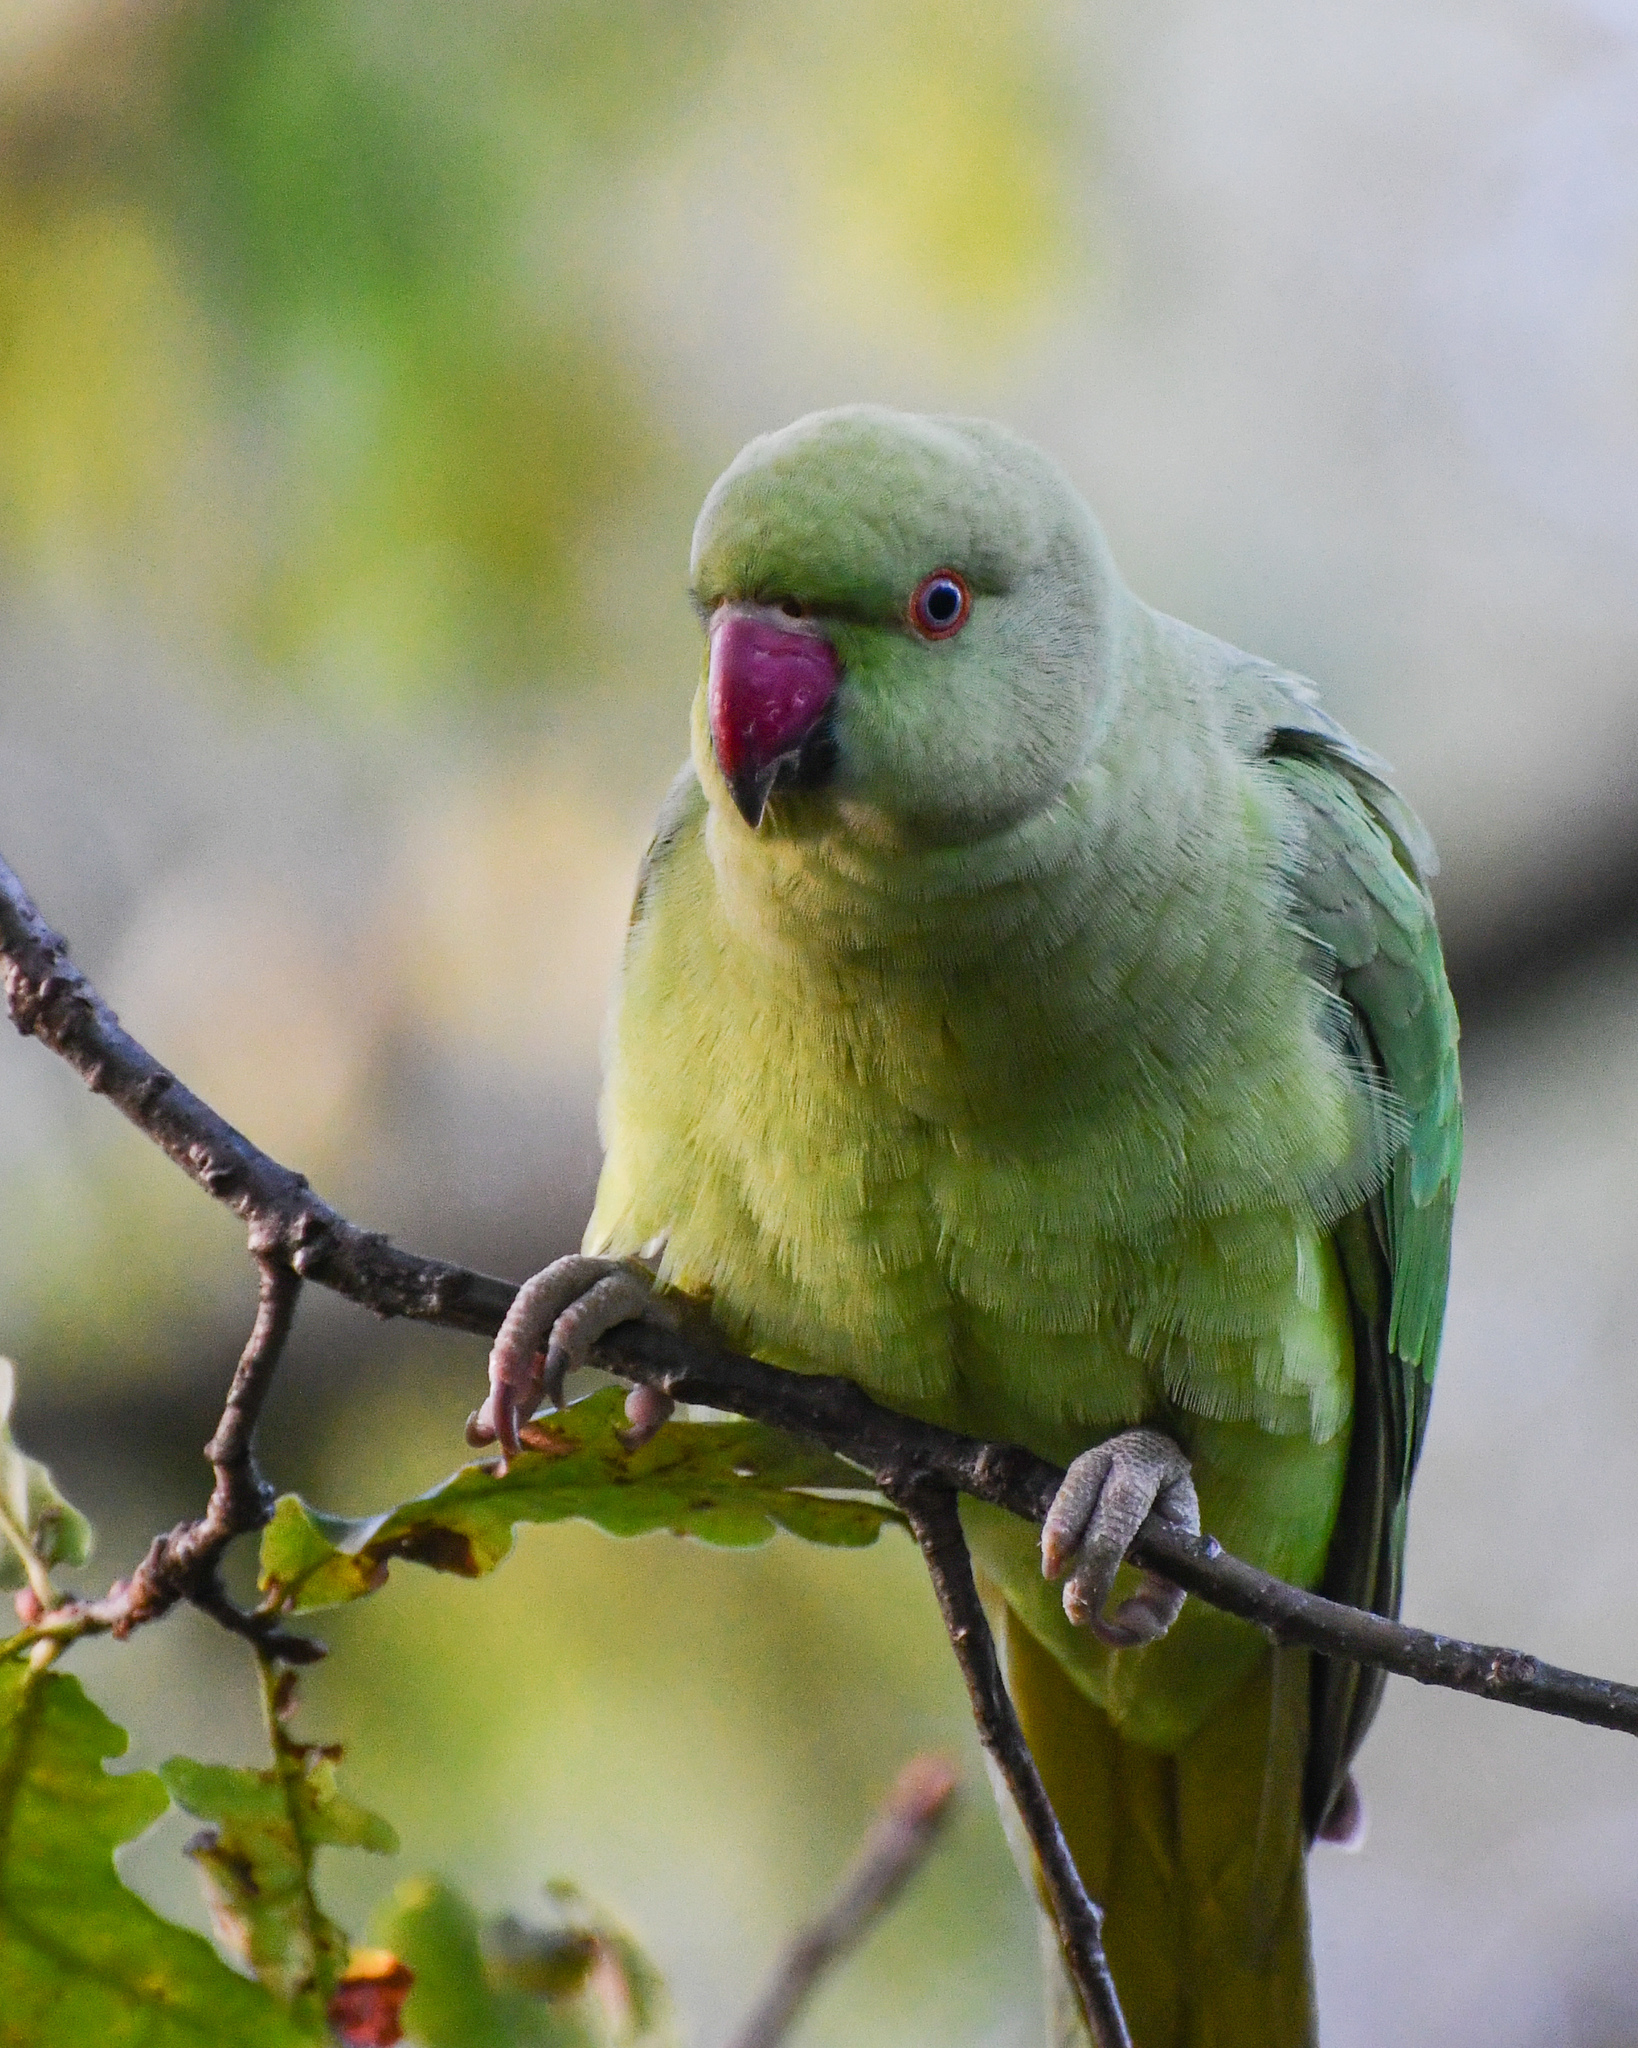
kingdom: Animalia
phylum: Chordata
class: Aves
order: Psittaciformes
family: Psittacidae
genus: Psittacula
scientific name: Psittacula krameri
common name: Rose-ringed parakeet
